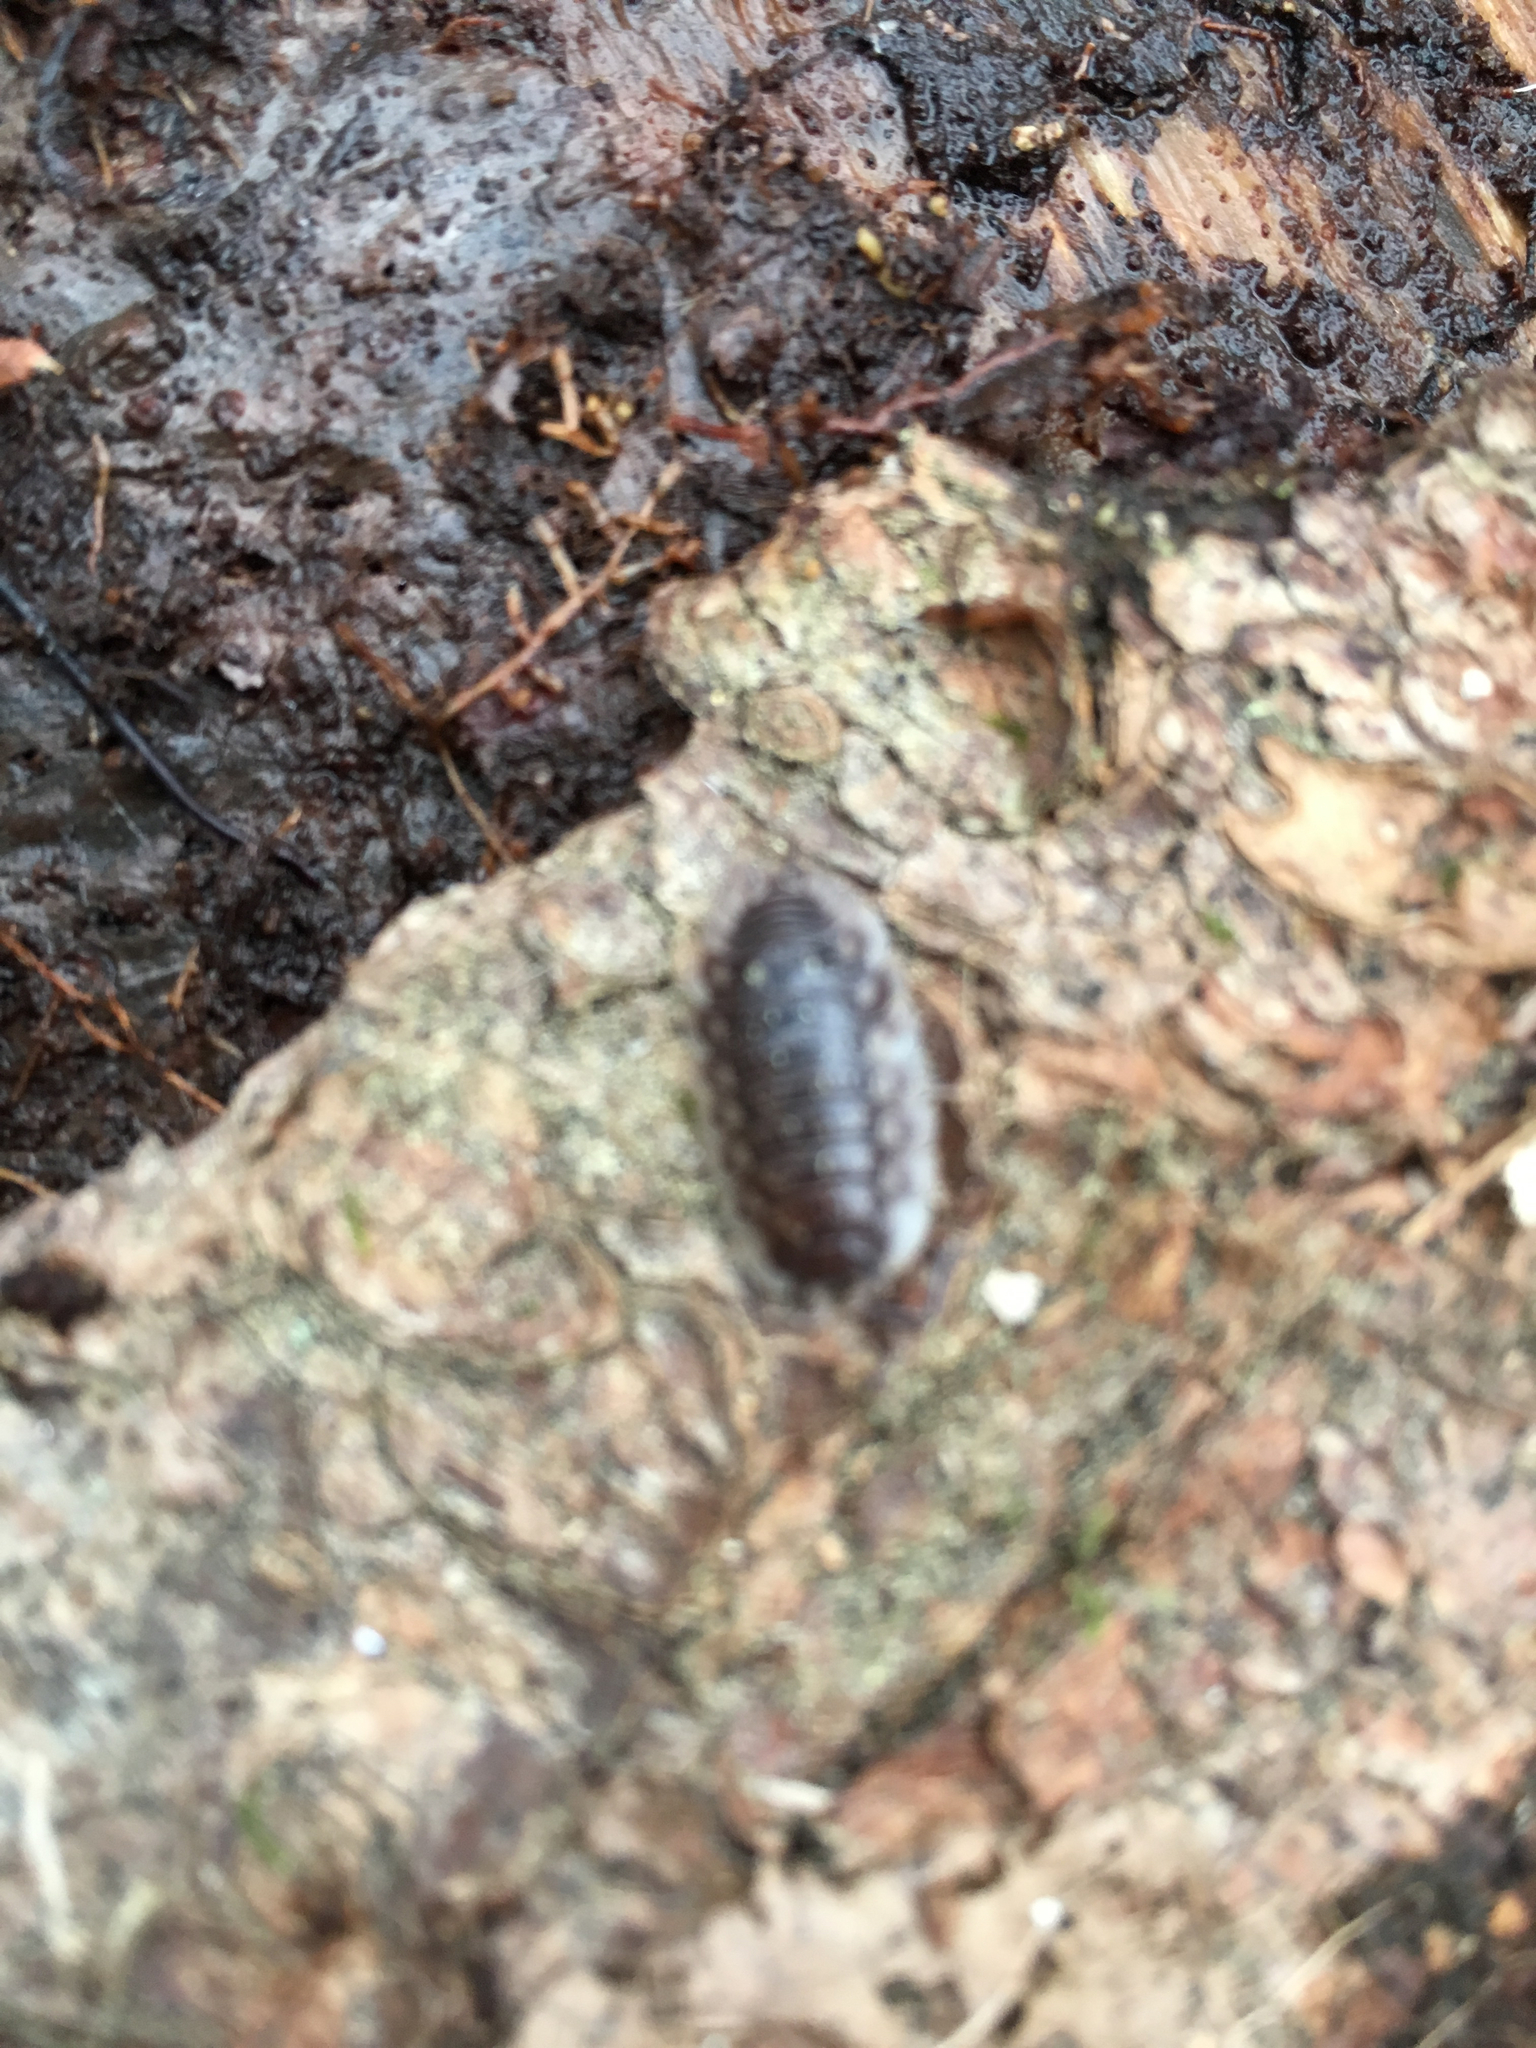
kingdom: Animalia
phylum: Arthropoda
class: Malacostraca
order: Isopoda
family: Oniscidae
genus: Oniscus
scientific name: Oniscus asellus
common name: Common shiny woodlouse
